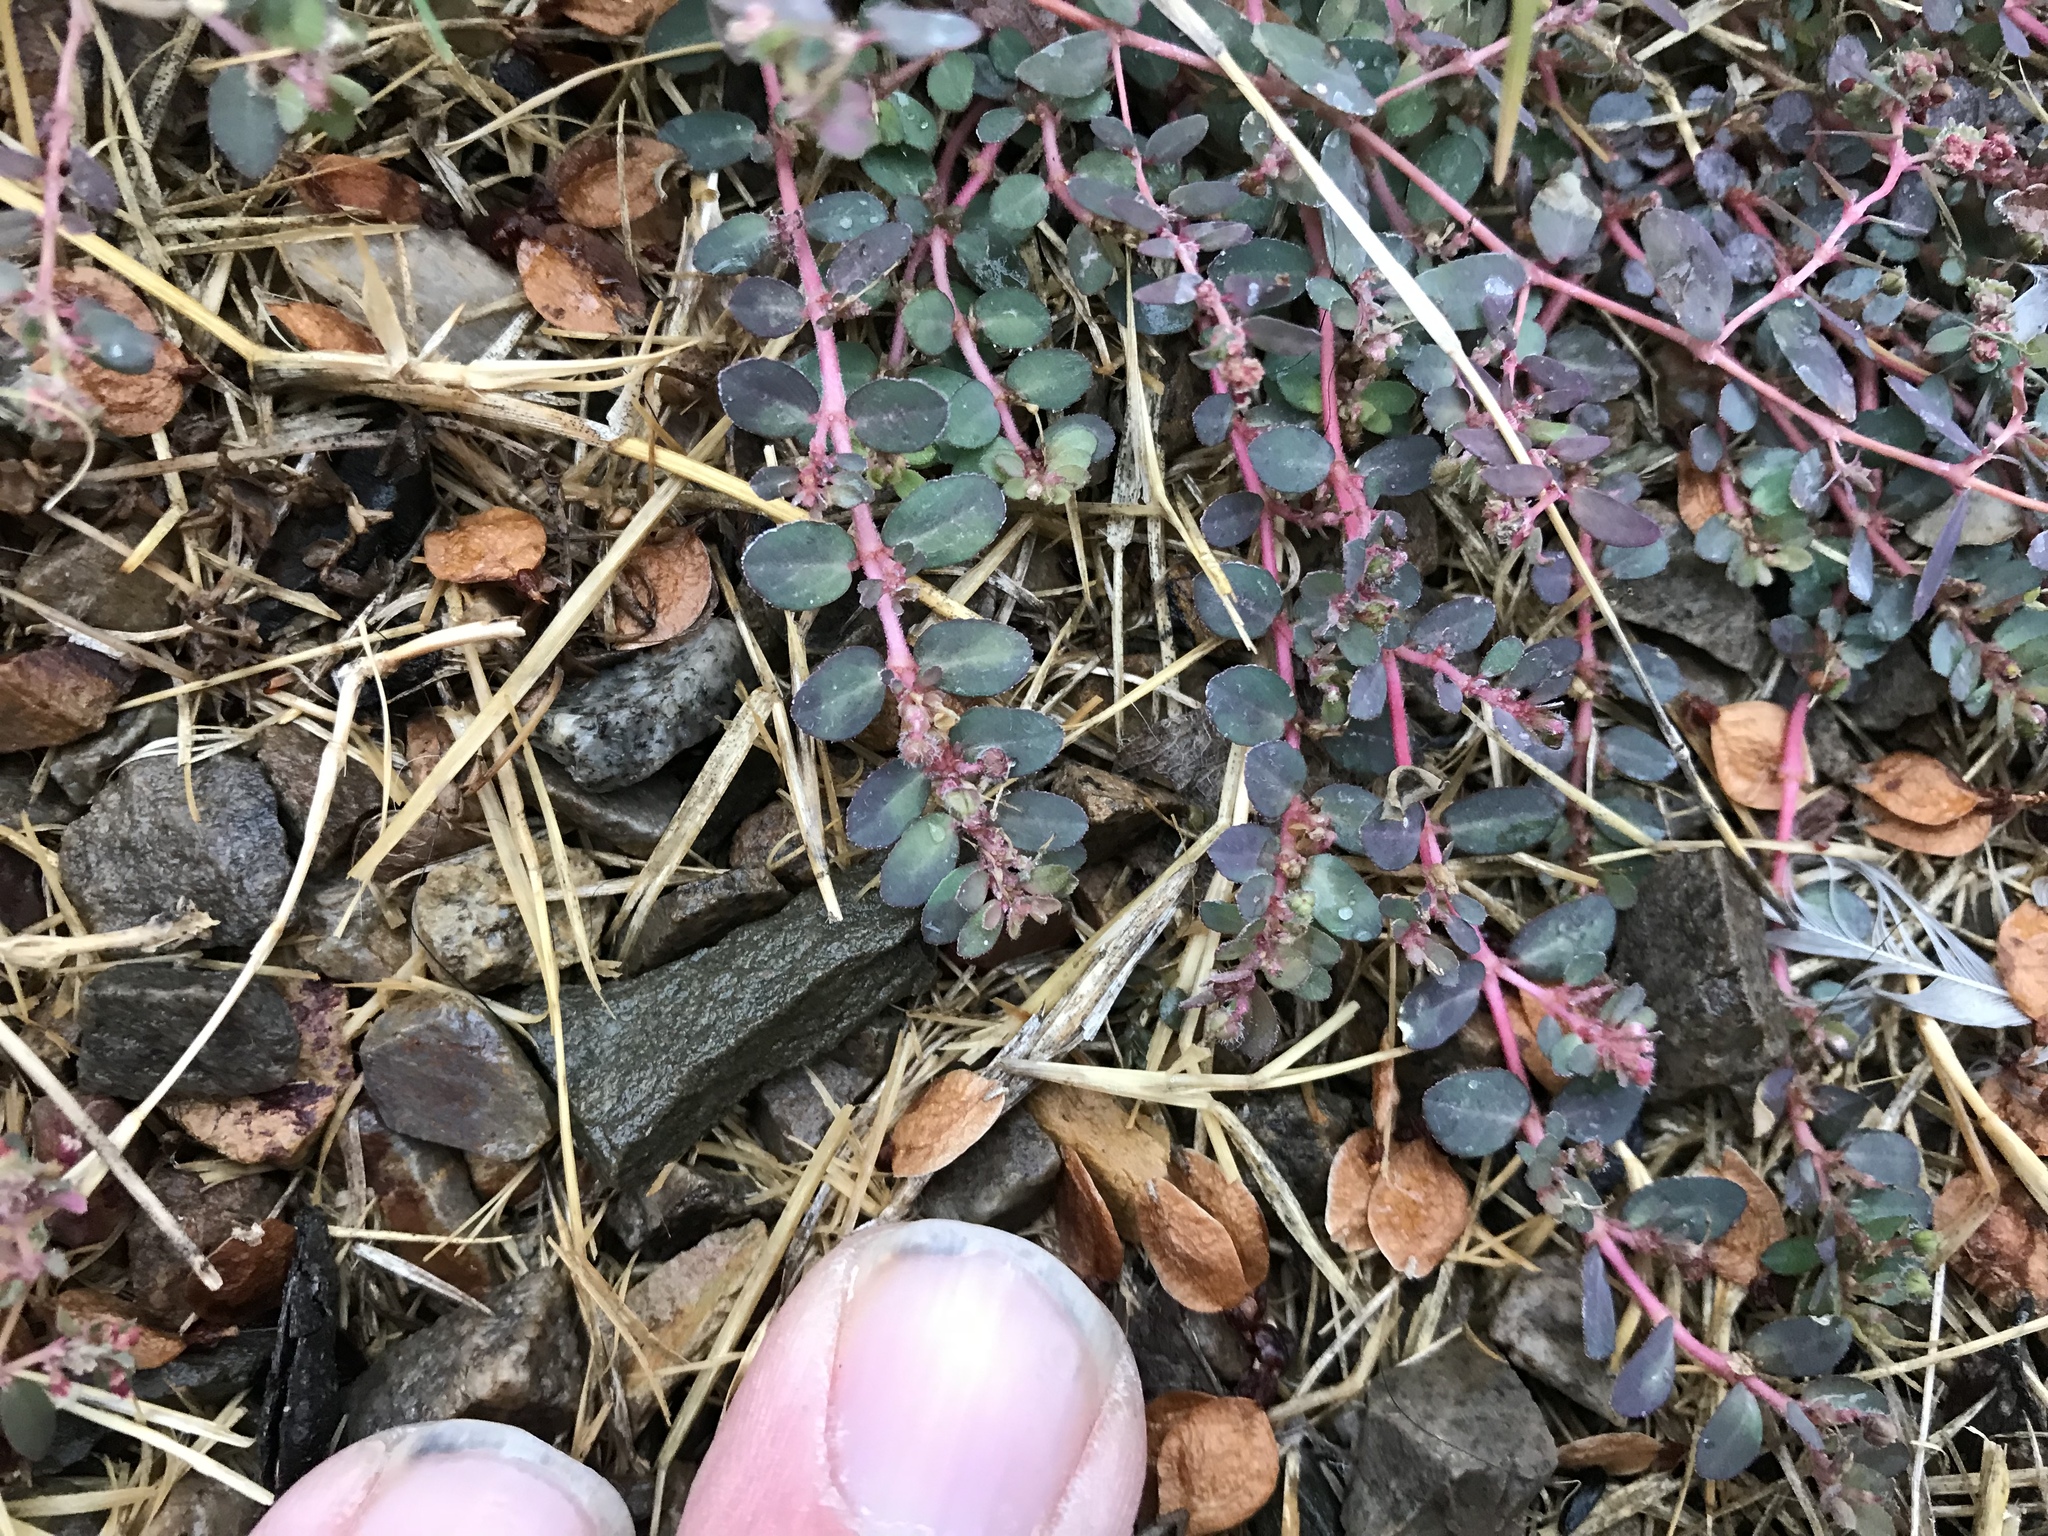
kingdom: Plantae
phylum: Tracheophyta
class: Magnoliopsida
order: Malpighiales
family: Euphorbiaceae
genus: Euphorbia
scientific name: Euphorbia prostrata
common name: Prostrate sandmat
